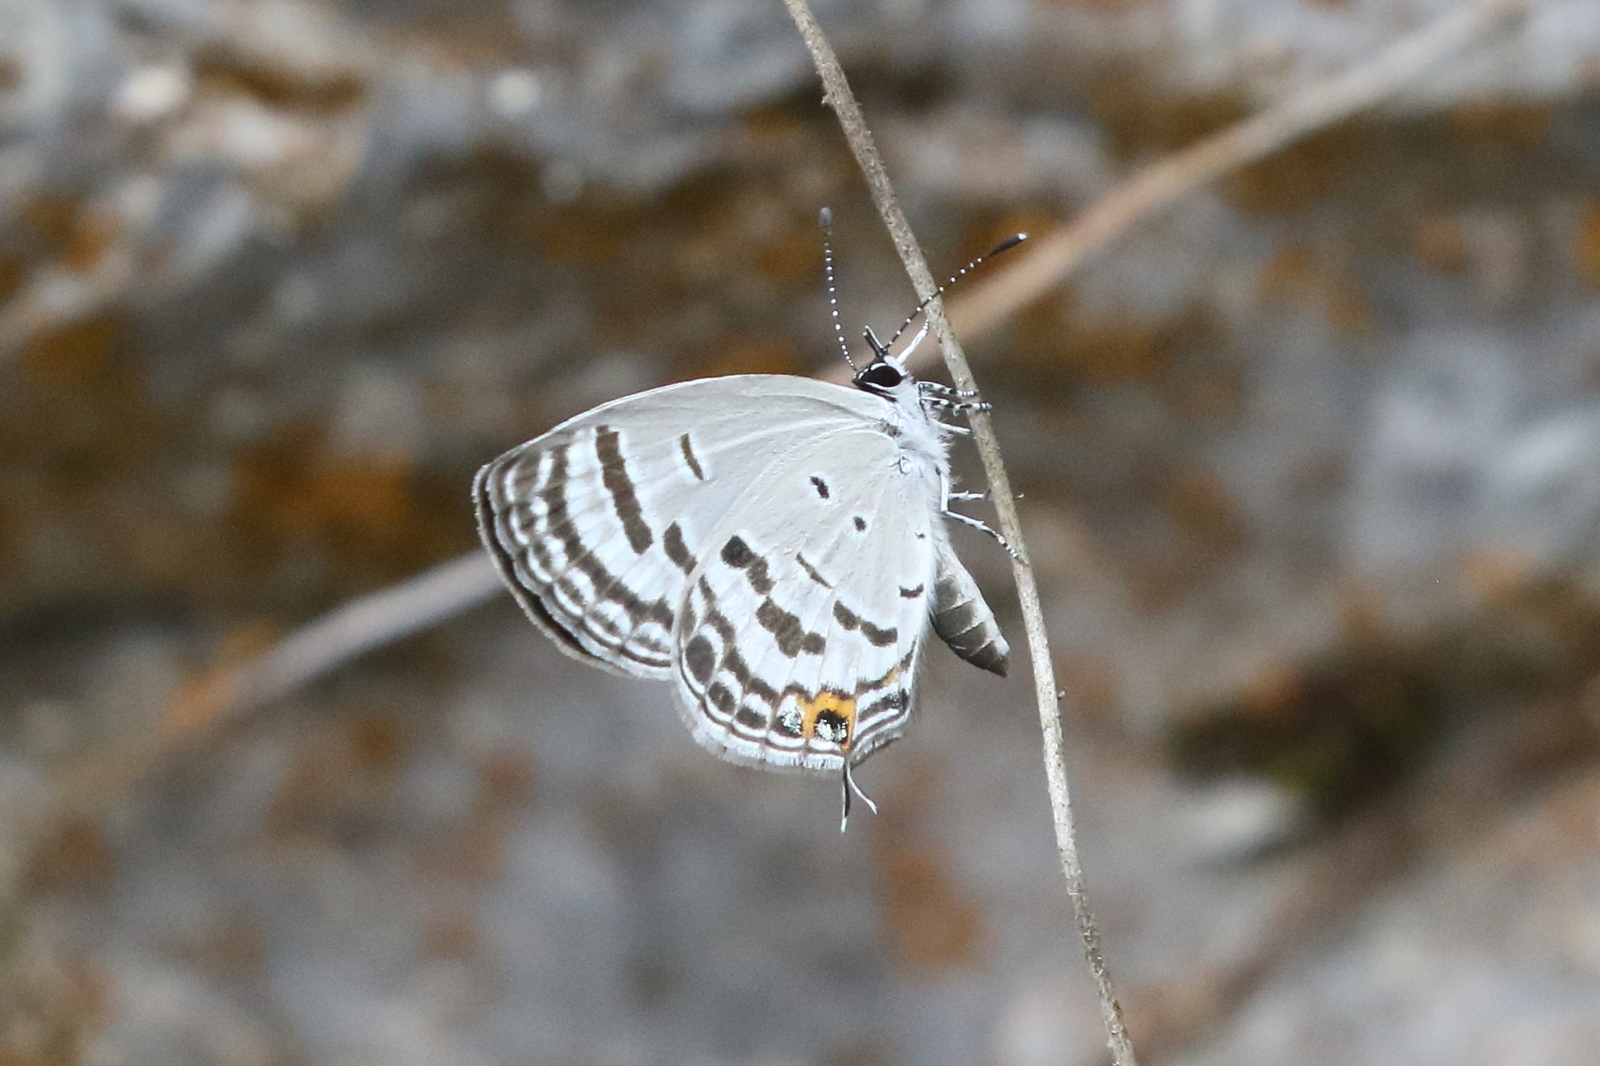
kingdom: Animalia
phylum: Arthropoda
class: Insecta
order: Lepidoptera
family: Lycaenidae
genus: Tongeia
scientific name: Tongeia
